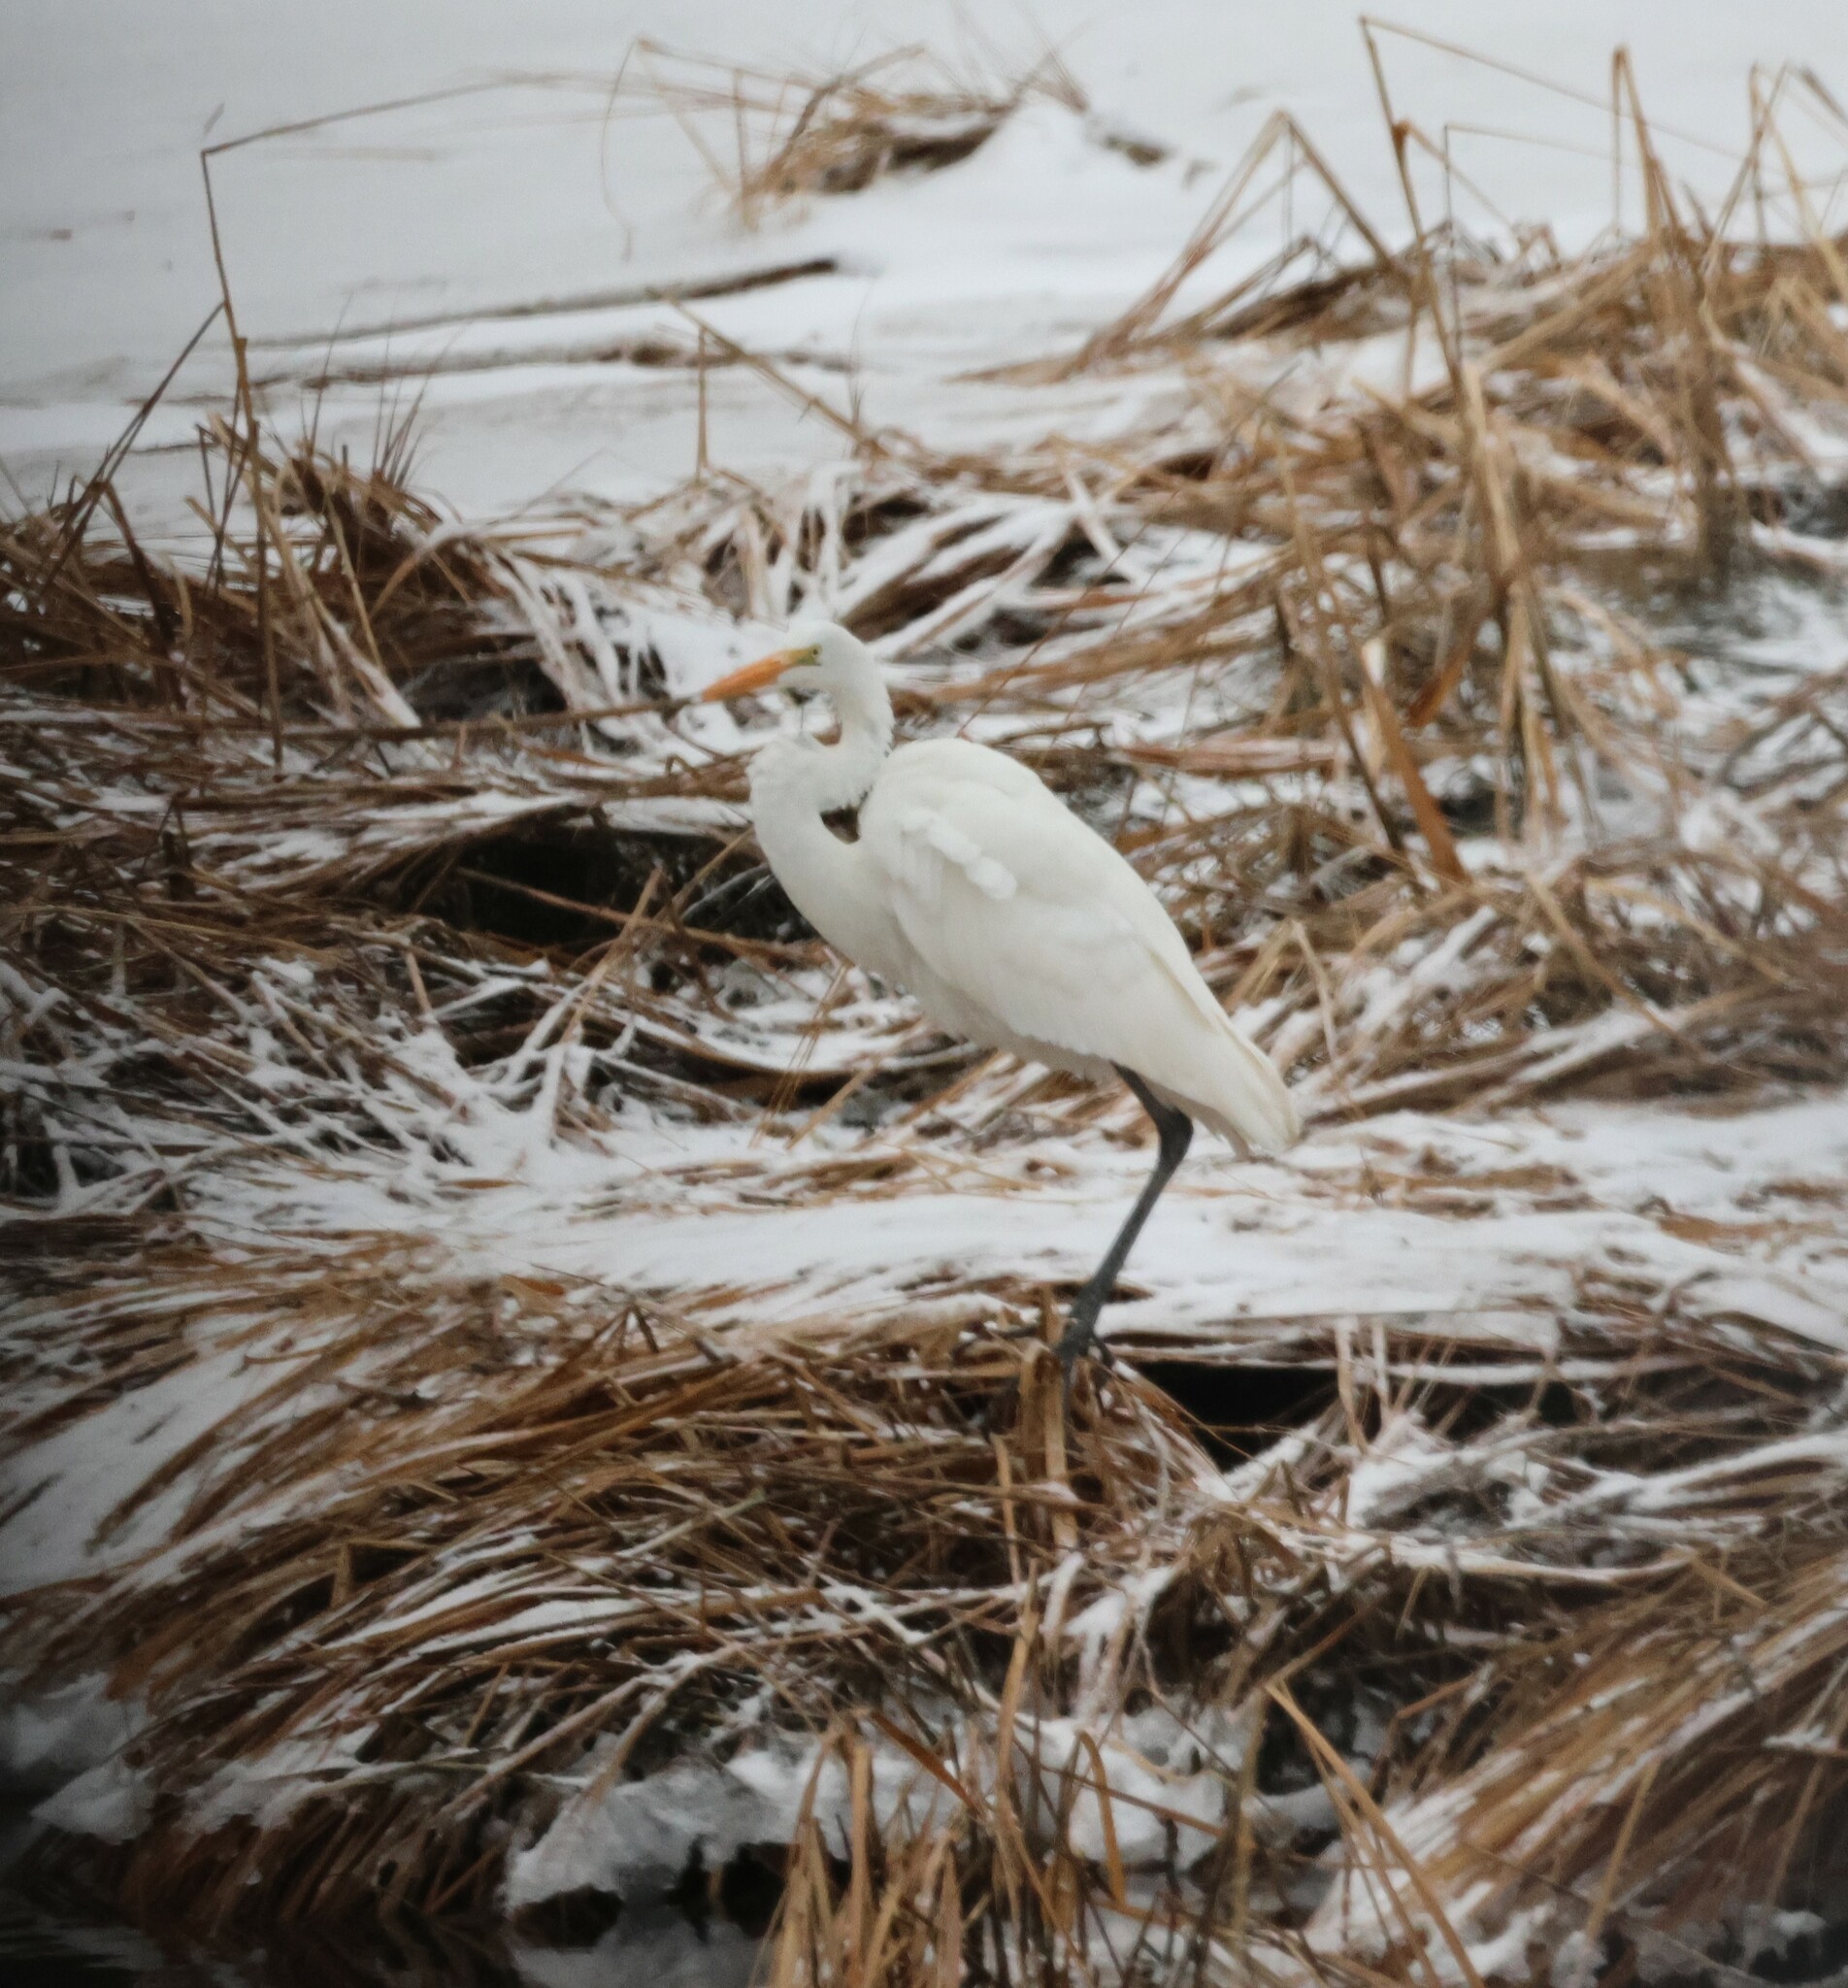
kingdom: Animalia
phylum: Chordata
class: Aves
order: Pelecaniformes
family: Ardeidae
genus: Ardea
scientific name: Ardea alba
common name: Great egret
